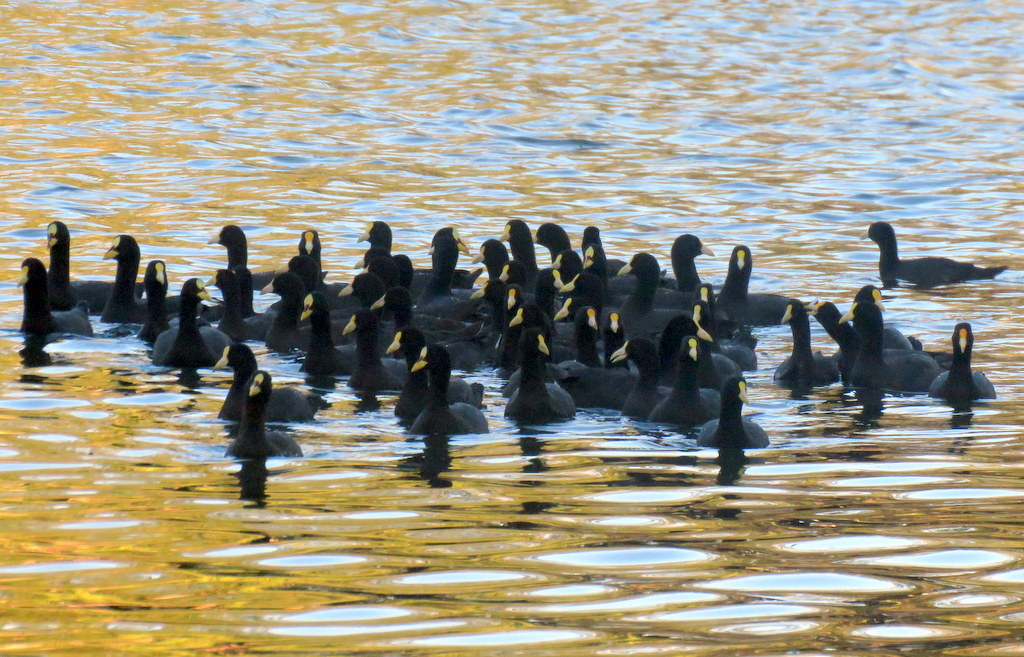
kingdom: Animalia
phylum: Chordata
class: Aves
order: Gruiformes
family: Rallidae
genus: Fulica
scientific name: Fulica leucoptera
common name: White-winged coot
